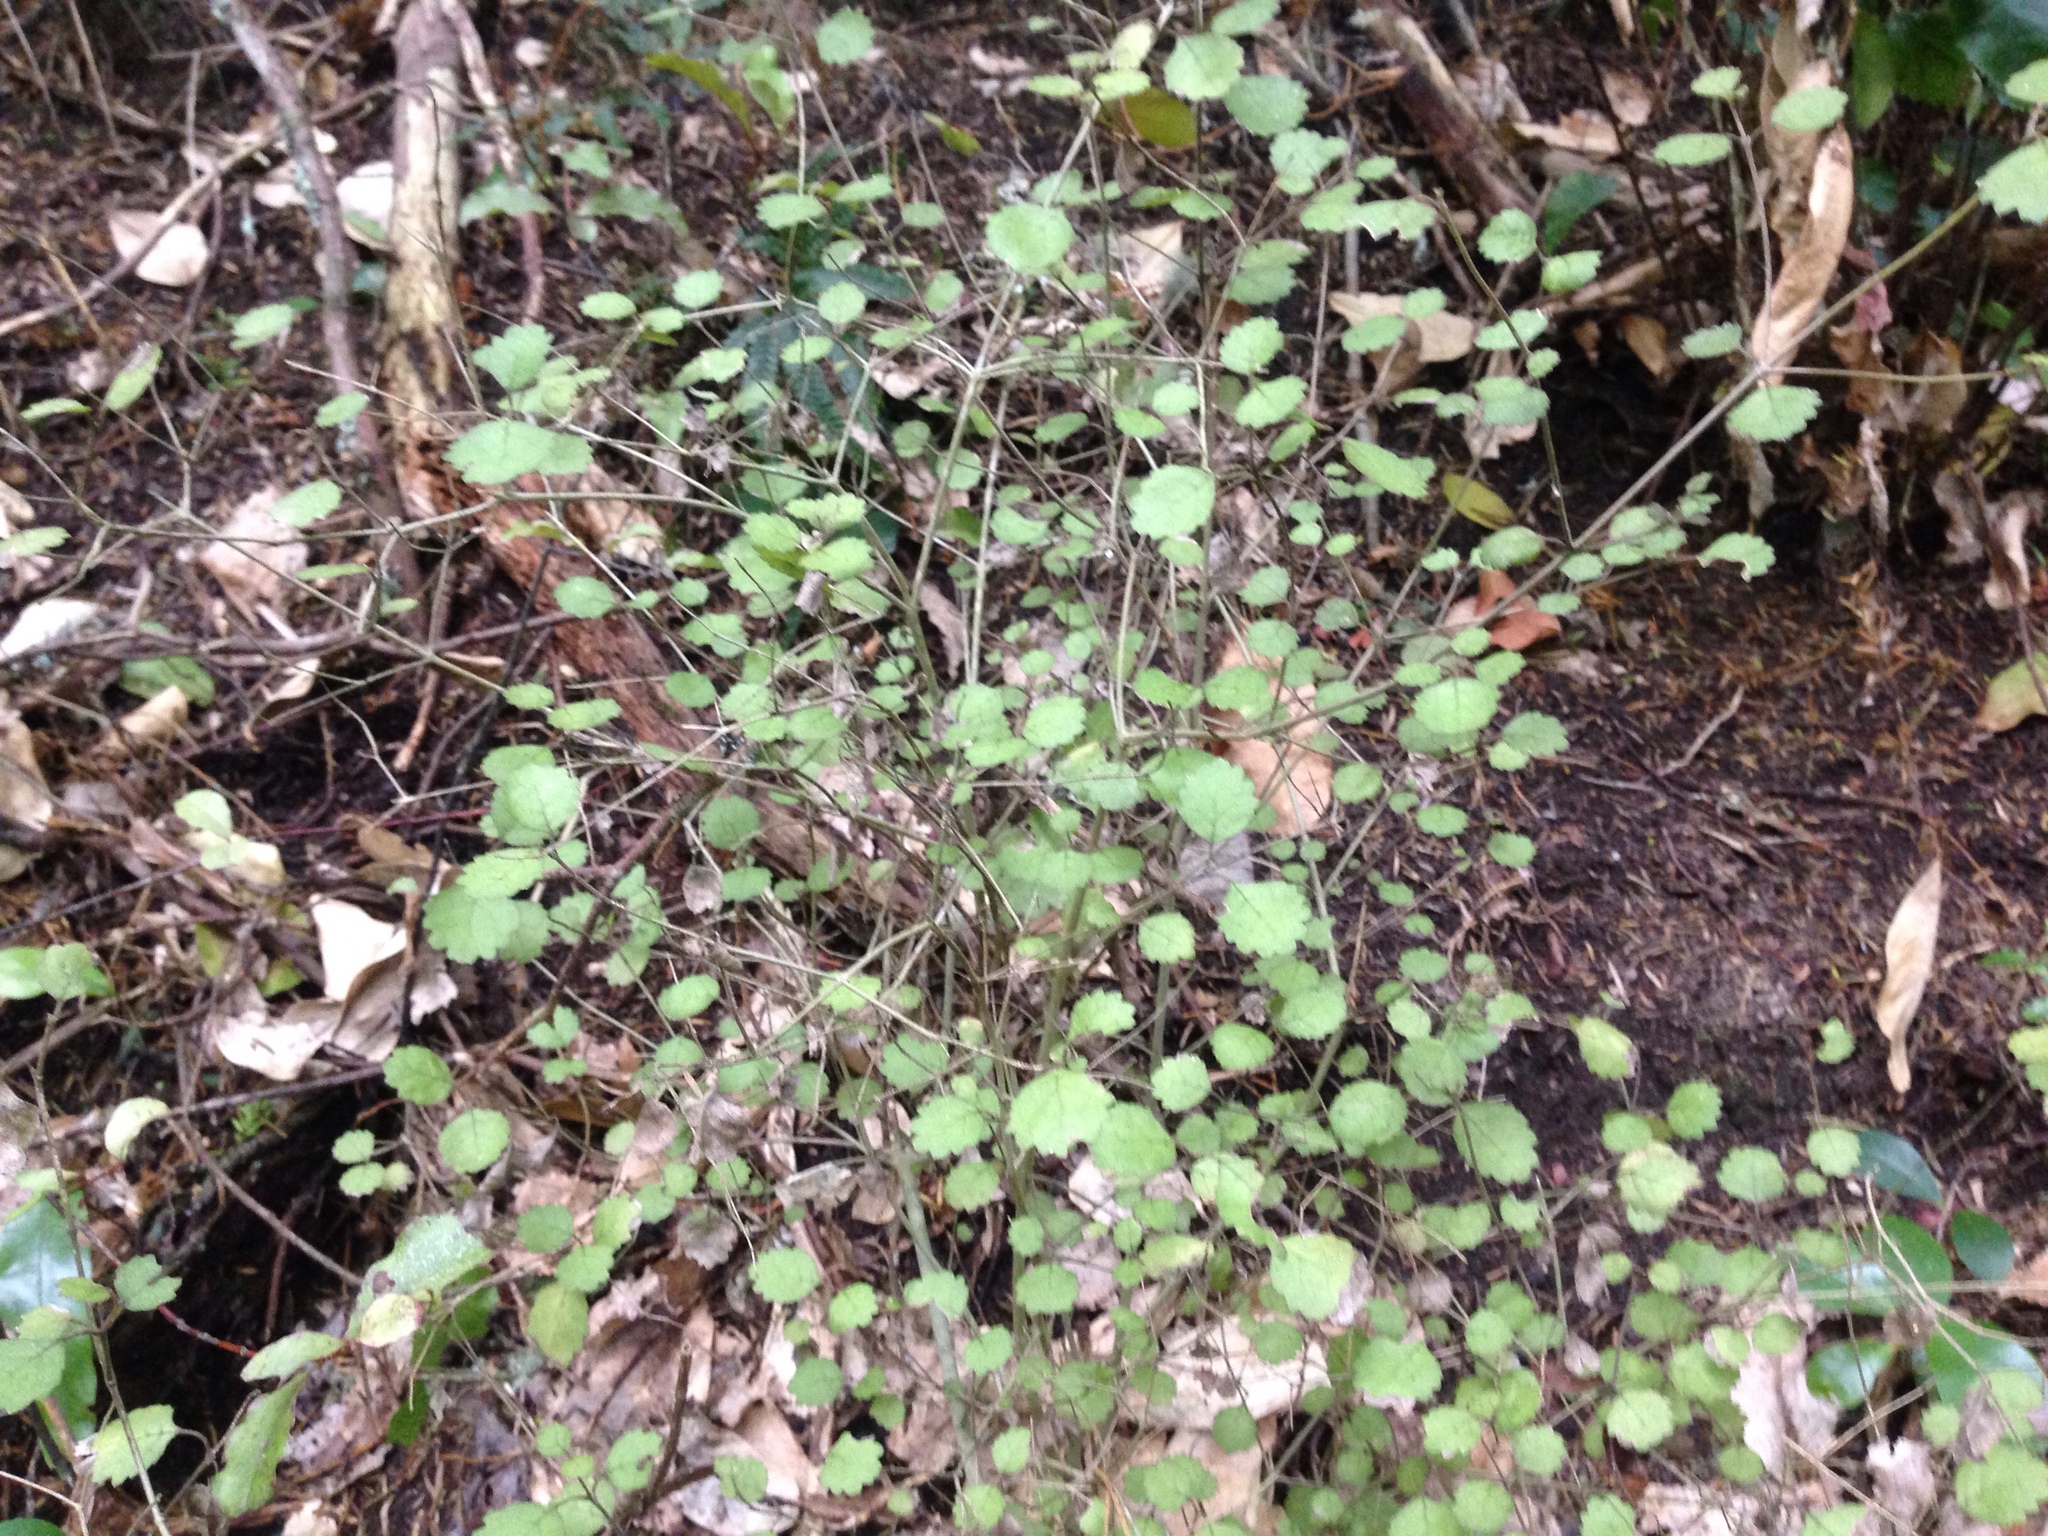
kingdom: Plantae
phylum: Tracheophyta
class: Magnoliopsida
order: Lamiales
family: Gesneriaceae
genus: Rhabdothamnus
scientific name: Rhabdothamnus solandri
